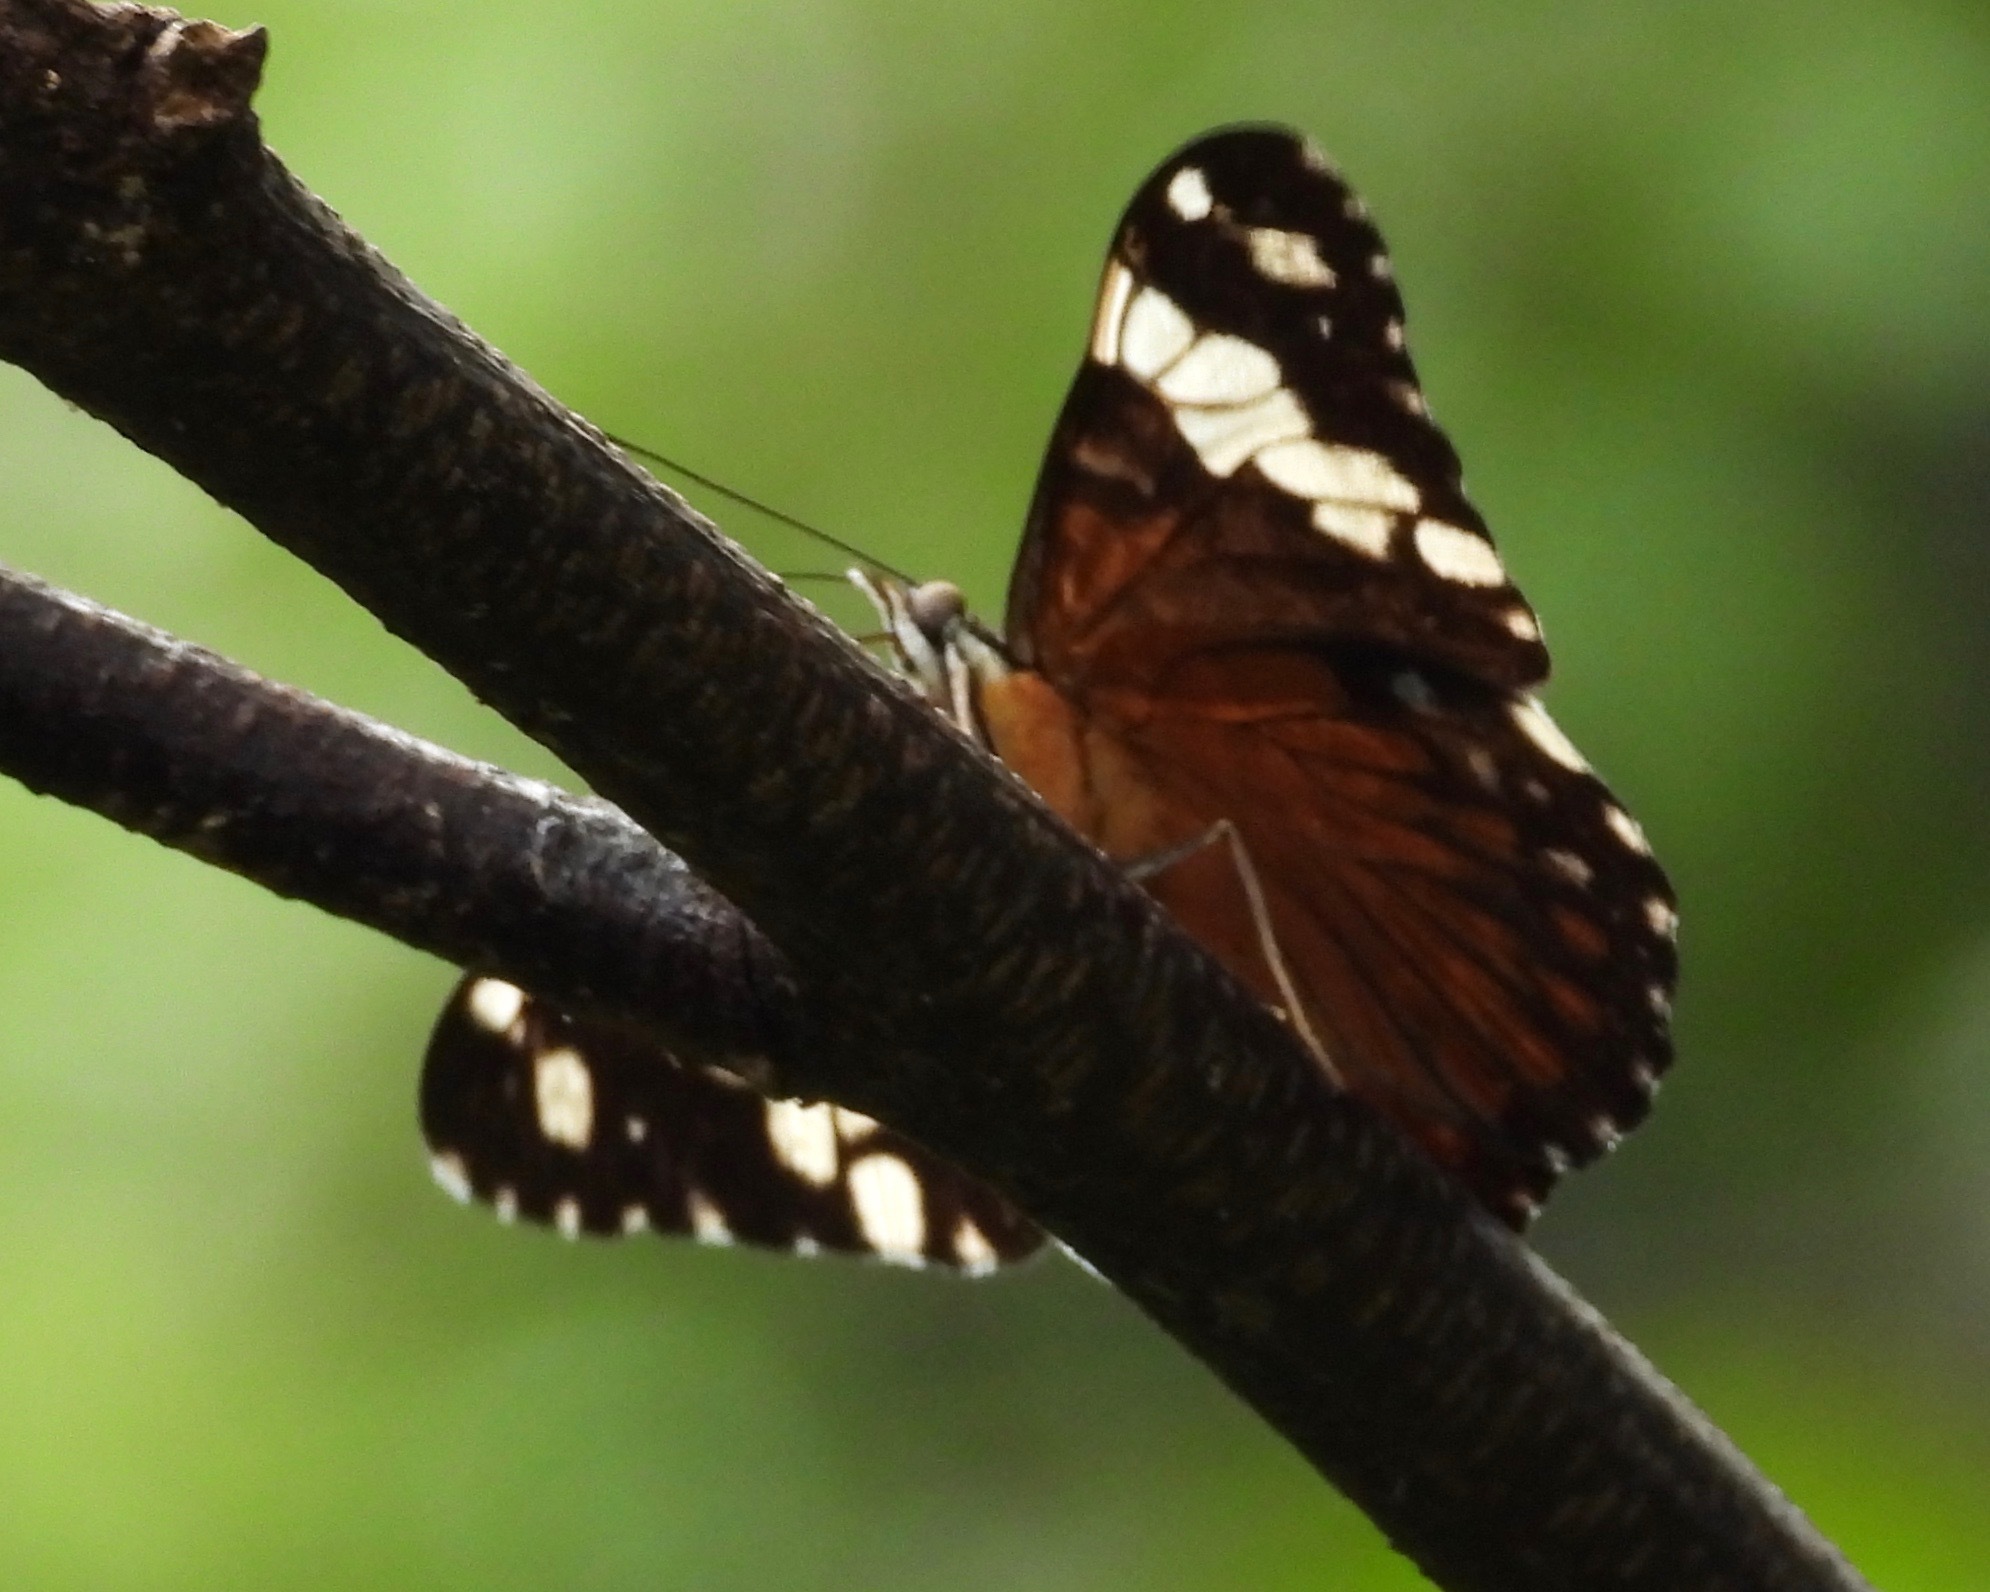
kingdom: Animalia
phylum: Arthropoda
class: Insecta
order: Lepidoptera
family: Nymphalidae
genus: Hamadryas
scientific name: Hamadryas amphinome
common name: Red cracker
